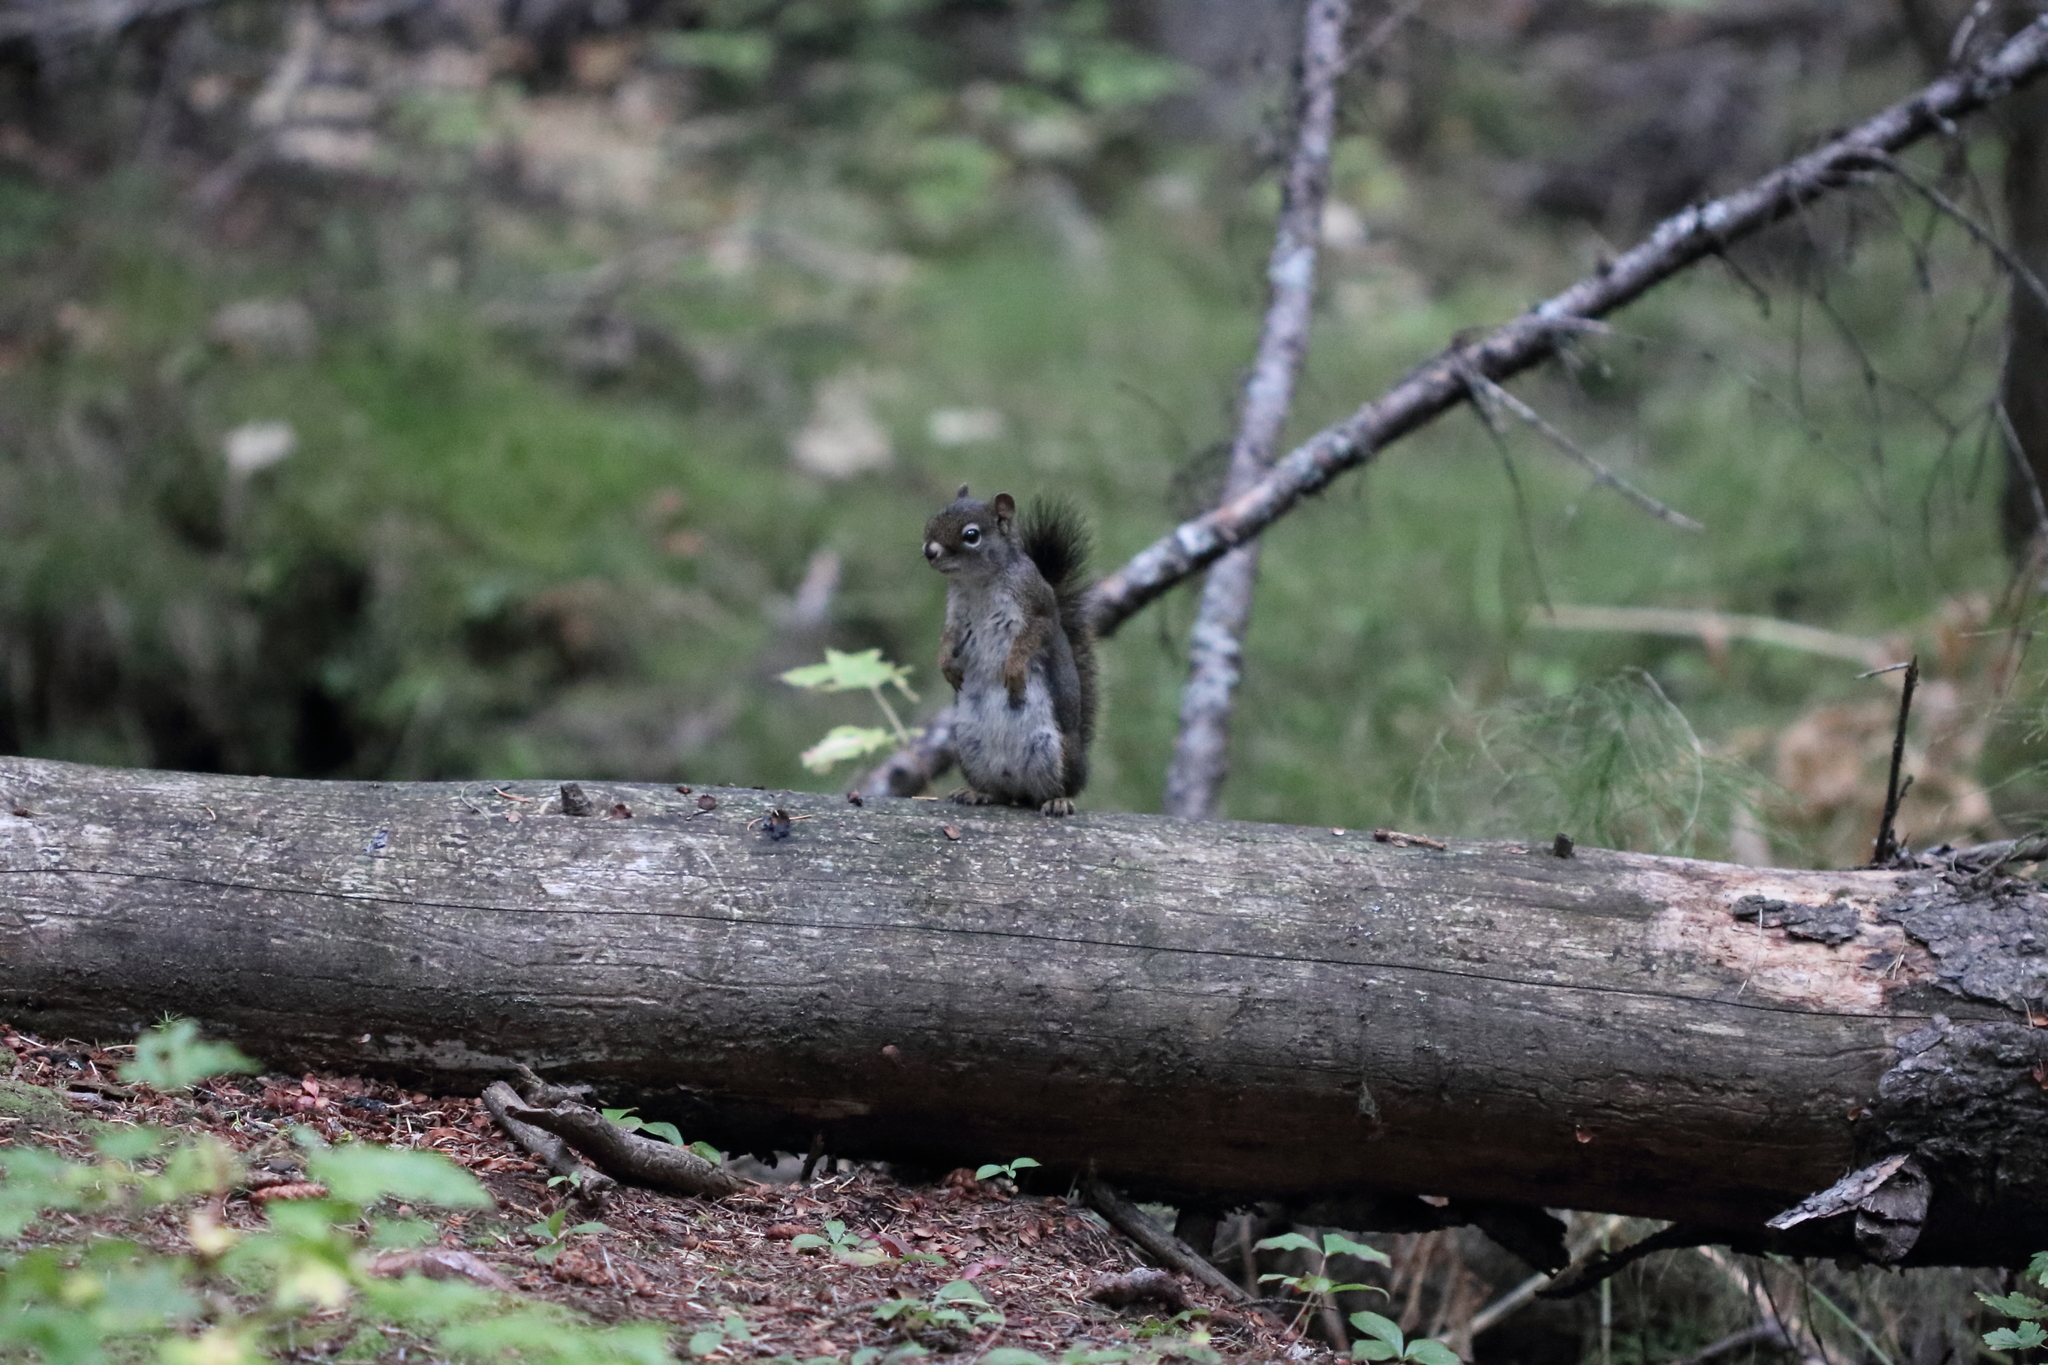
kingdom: Animalia
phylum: Chordata
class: Mammalia
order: Rodentia
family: Sciuridae
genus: Tamiasciurus
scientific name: Tamiasciurus hudsonicus
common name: Red squirrel
